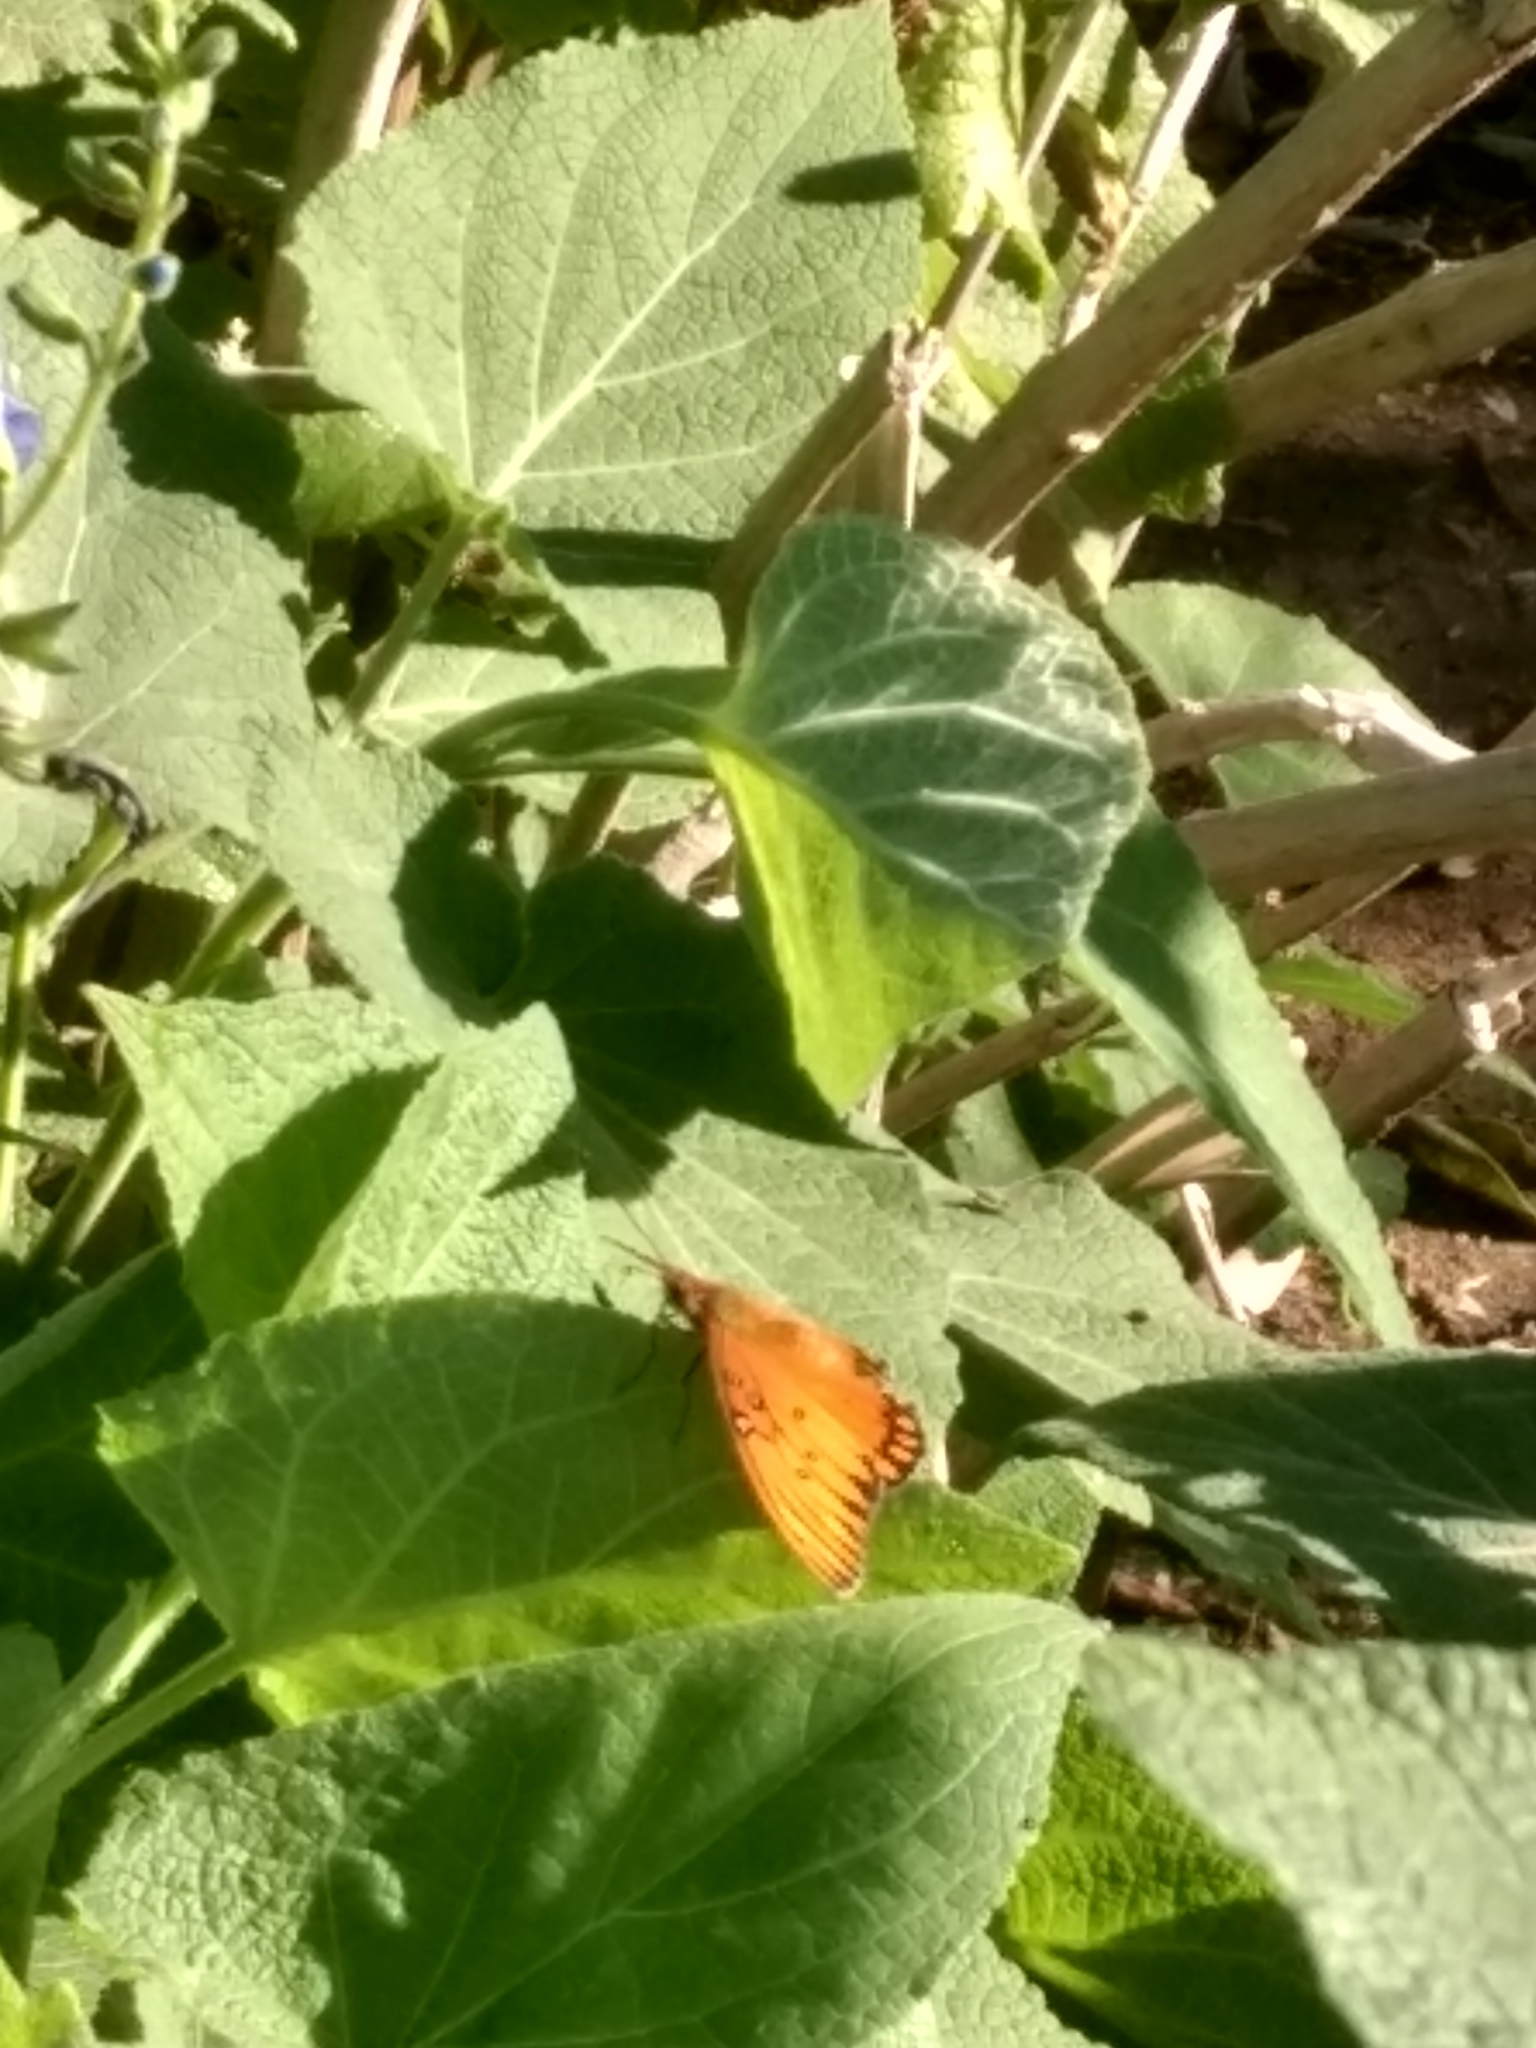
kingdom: Animalia
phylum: Arthropoda
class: Insecta
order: Lepidoptera
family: Nymphalidae
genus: Dione
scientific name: Dione vanillae
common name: Gulf fritillary
